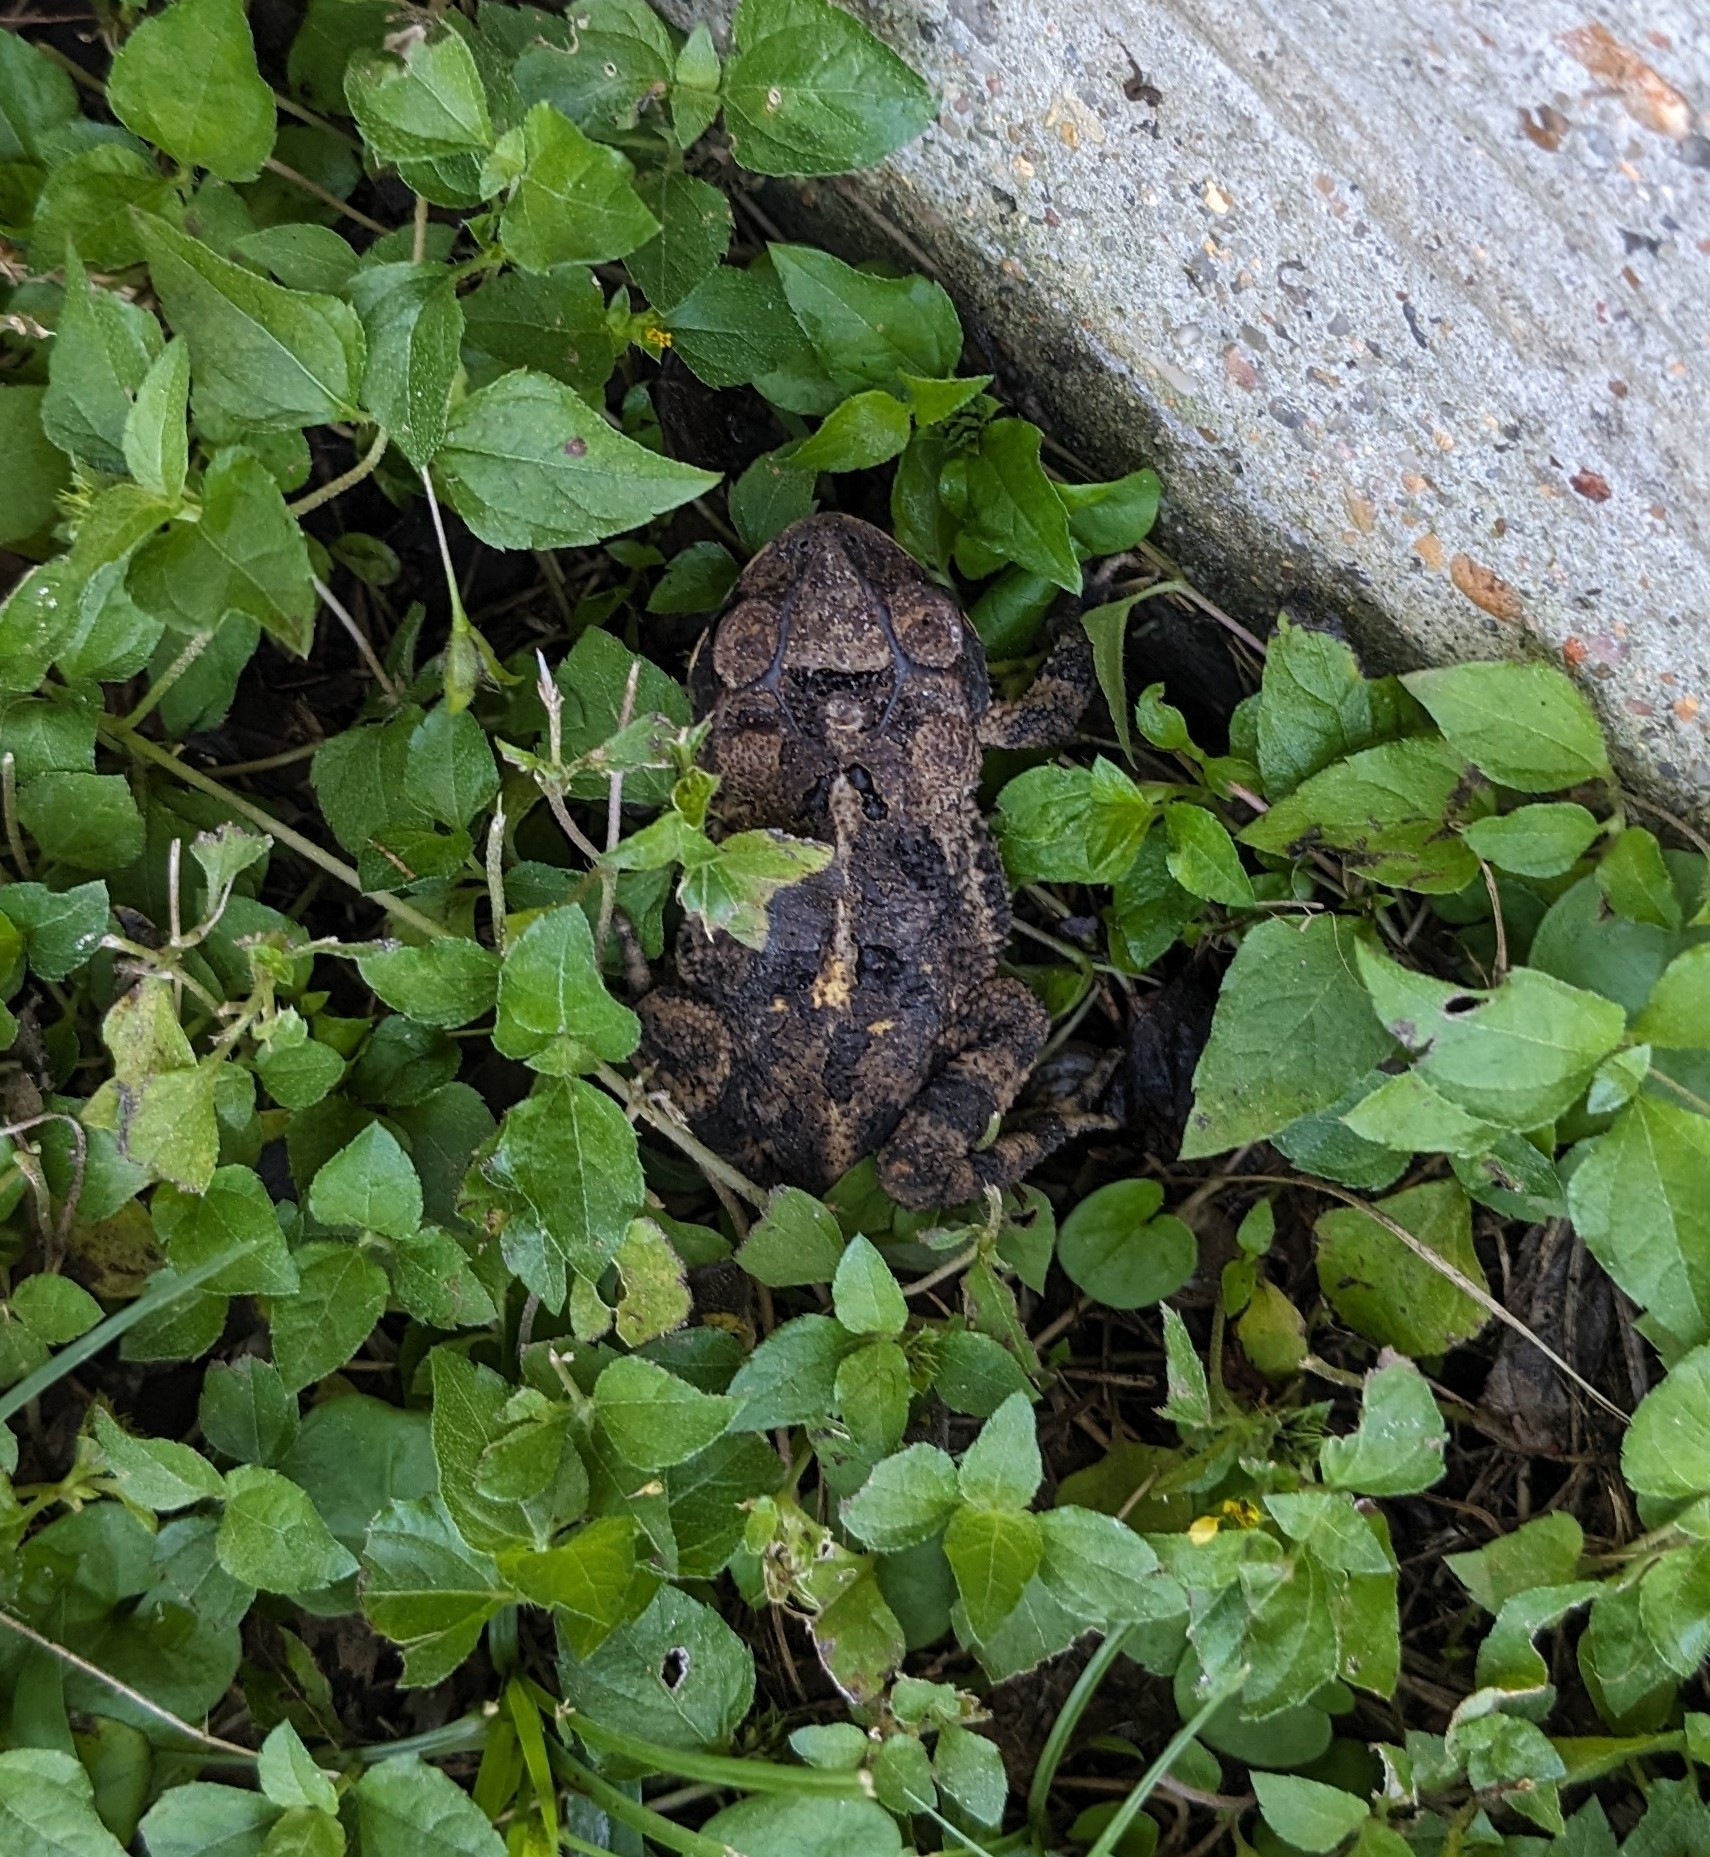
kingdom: Animalia
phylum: Chordata
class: Amphibia
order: Anura
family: Bufonidae
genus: Incilius
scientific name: Incilius nebulifer
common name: Gulf coast toad
